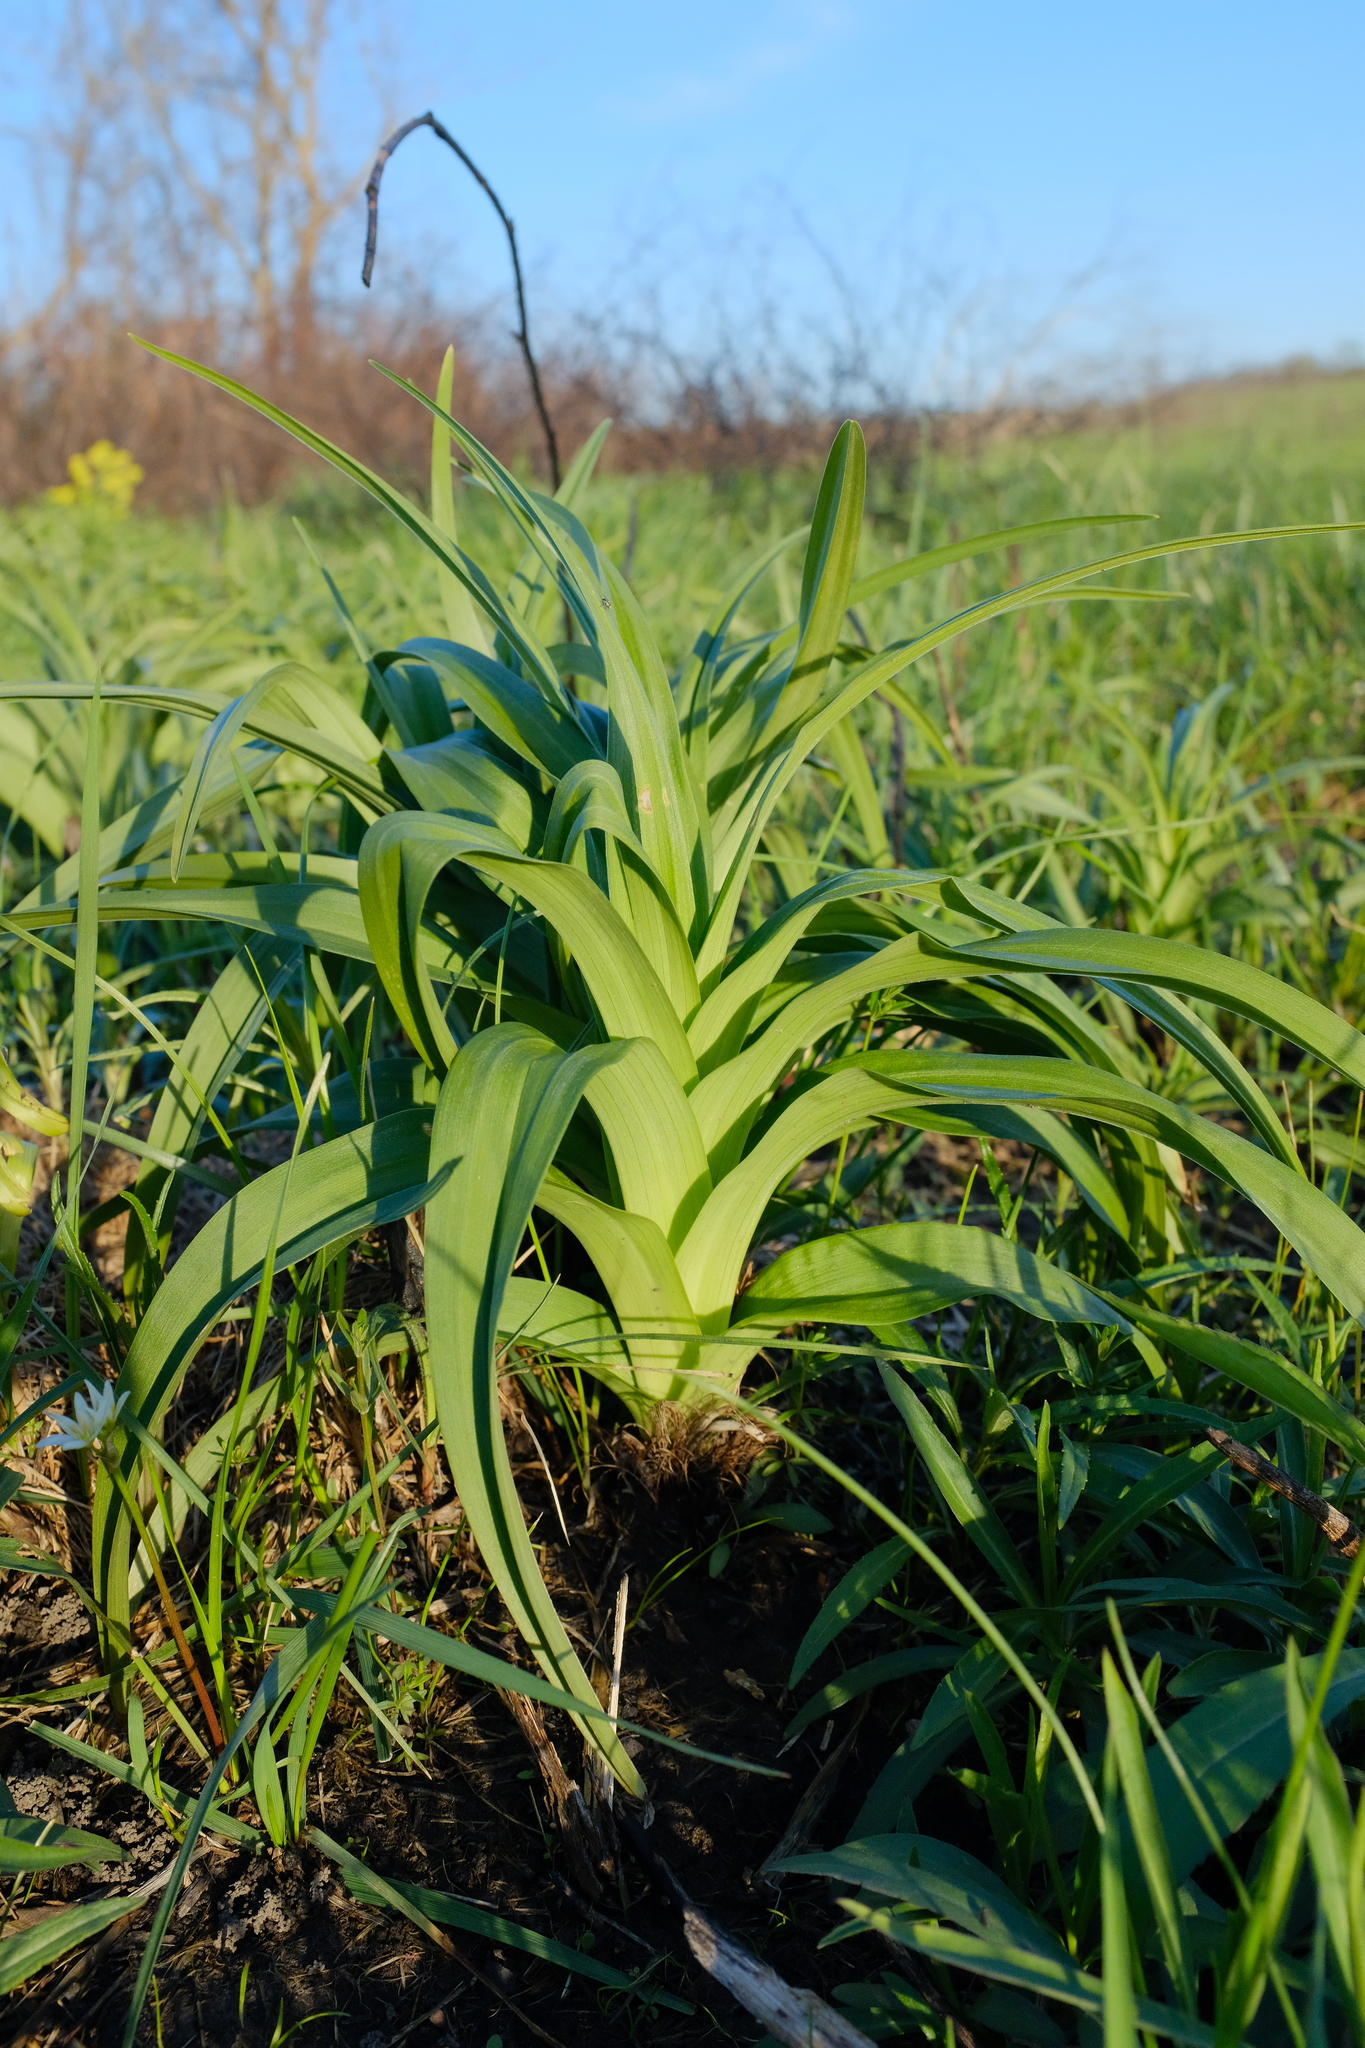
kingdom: Plantae
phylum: Tracheophyta
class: Liliopsida
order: Liliales
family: Melanthiaceae
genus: Melanthium
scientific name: Melanthium virginicum
